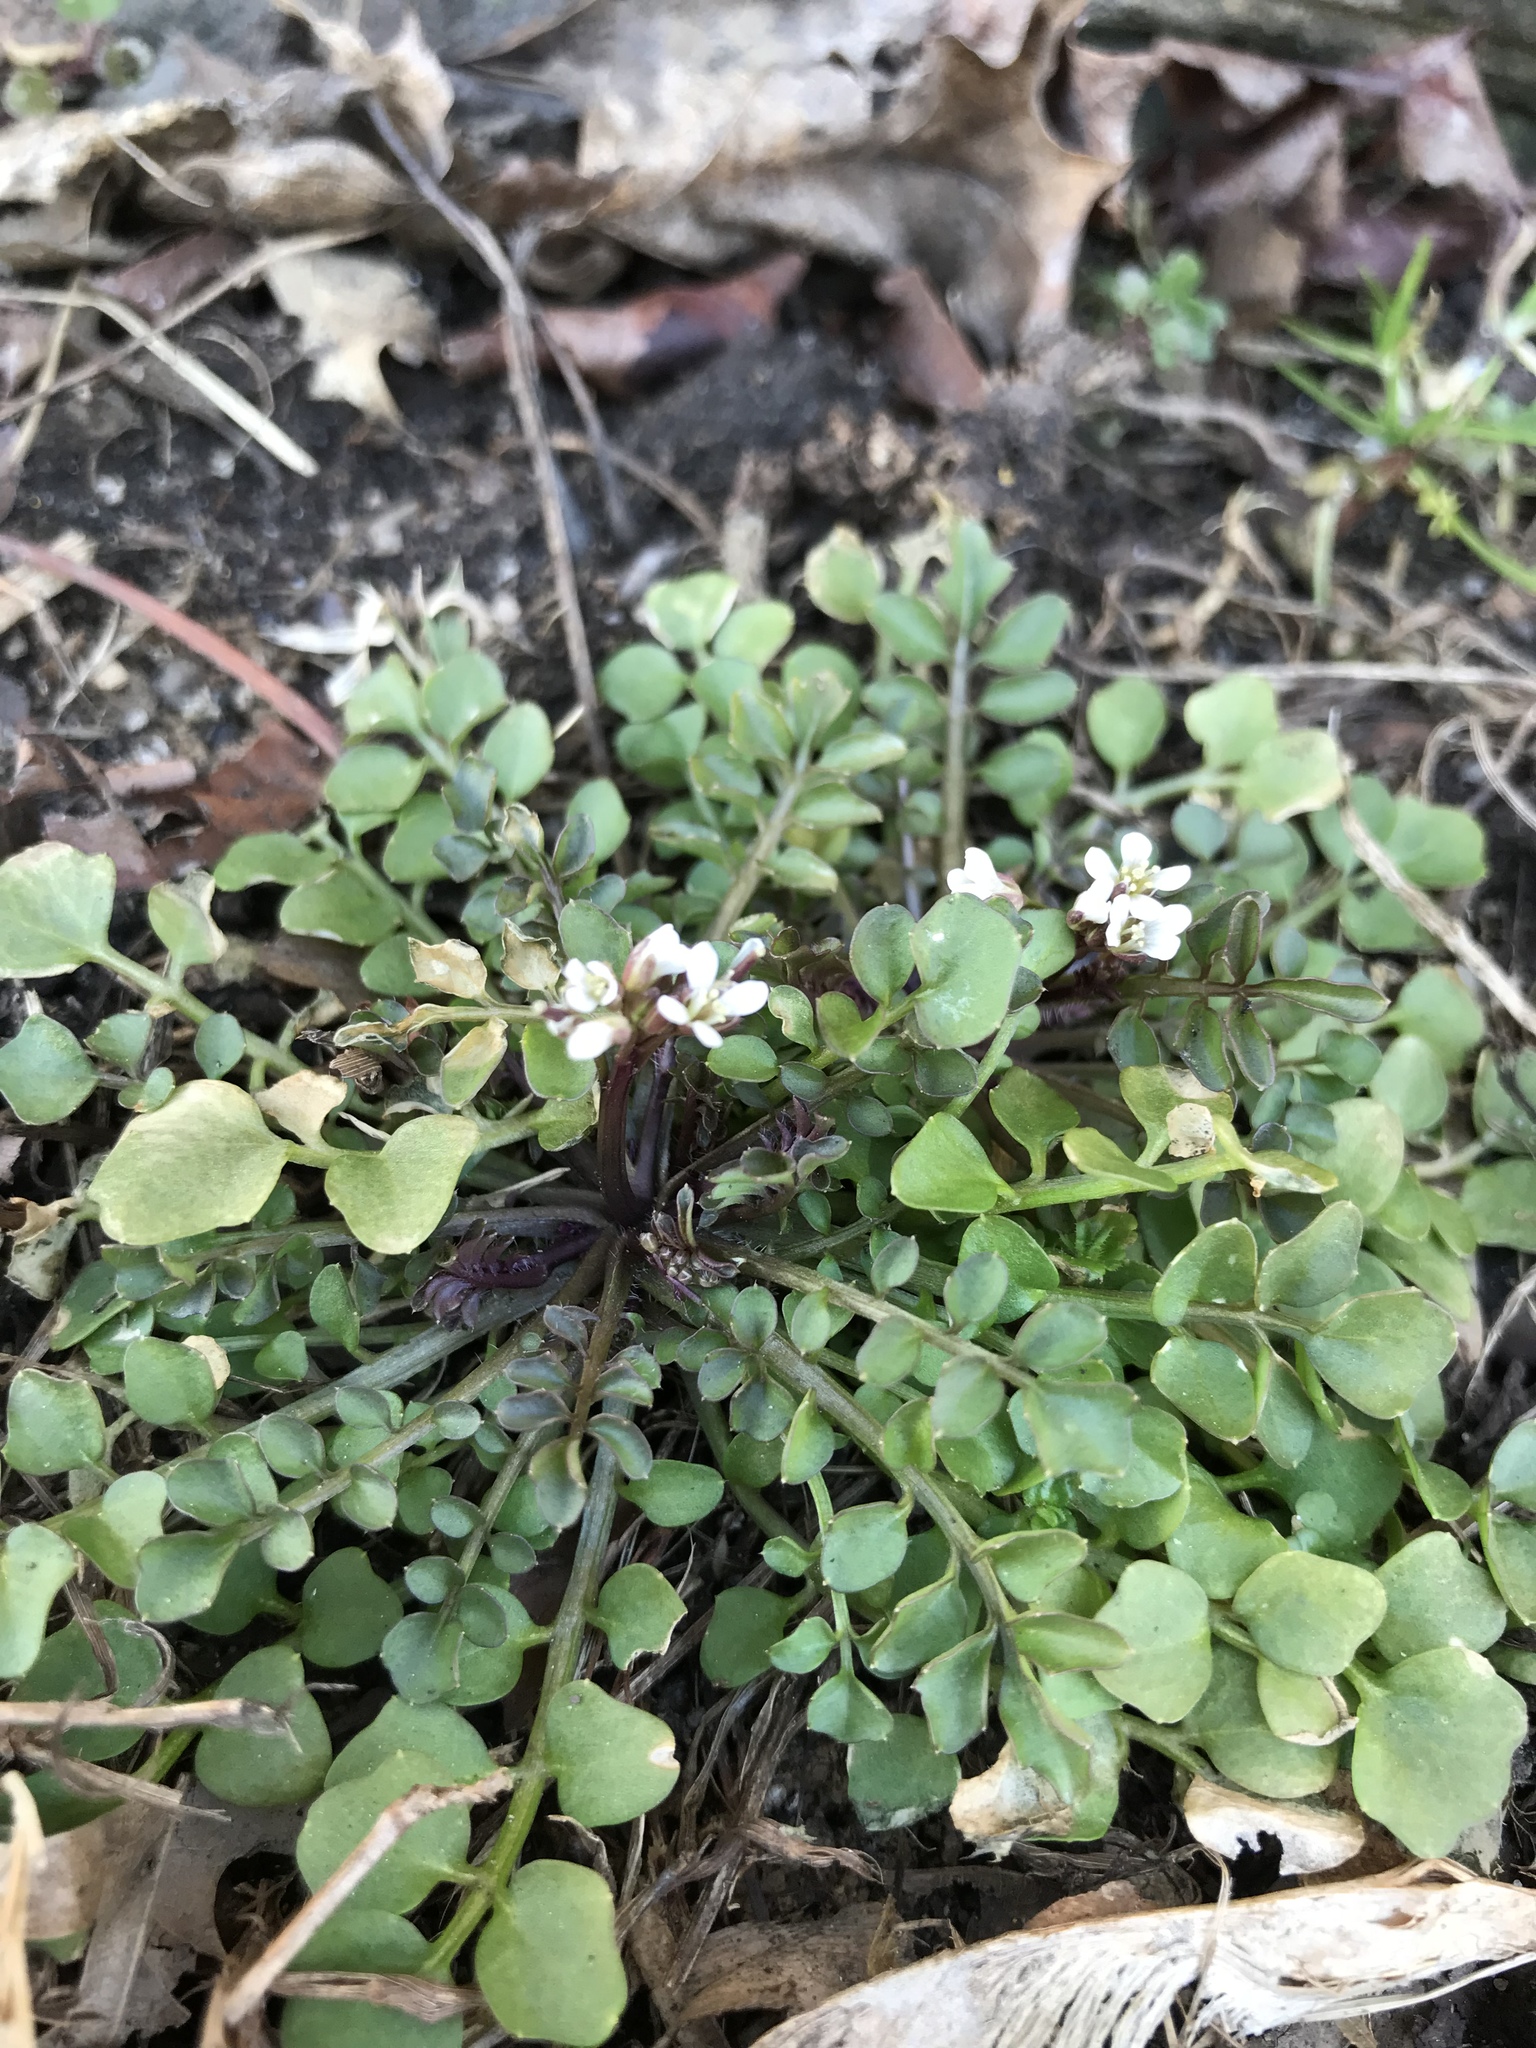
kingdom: Plantae
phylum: Tracheophyta
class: Magnoliopsida
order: Brassicales
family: Brassicaceae
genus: Cardamine
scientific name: Cardamine hirsuta
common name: Hairy bittercress
